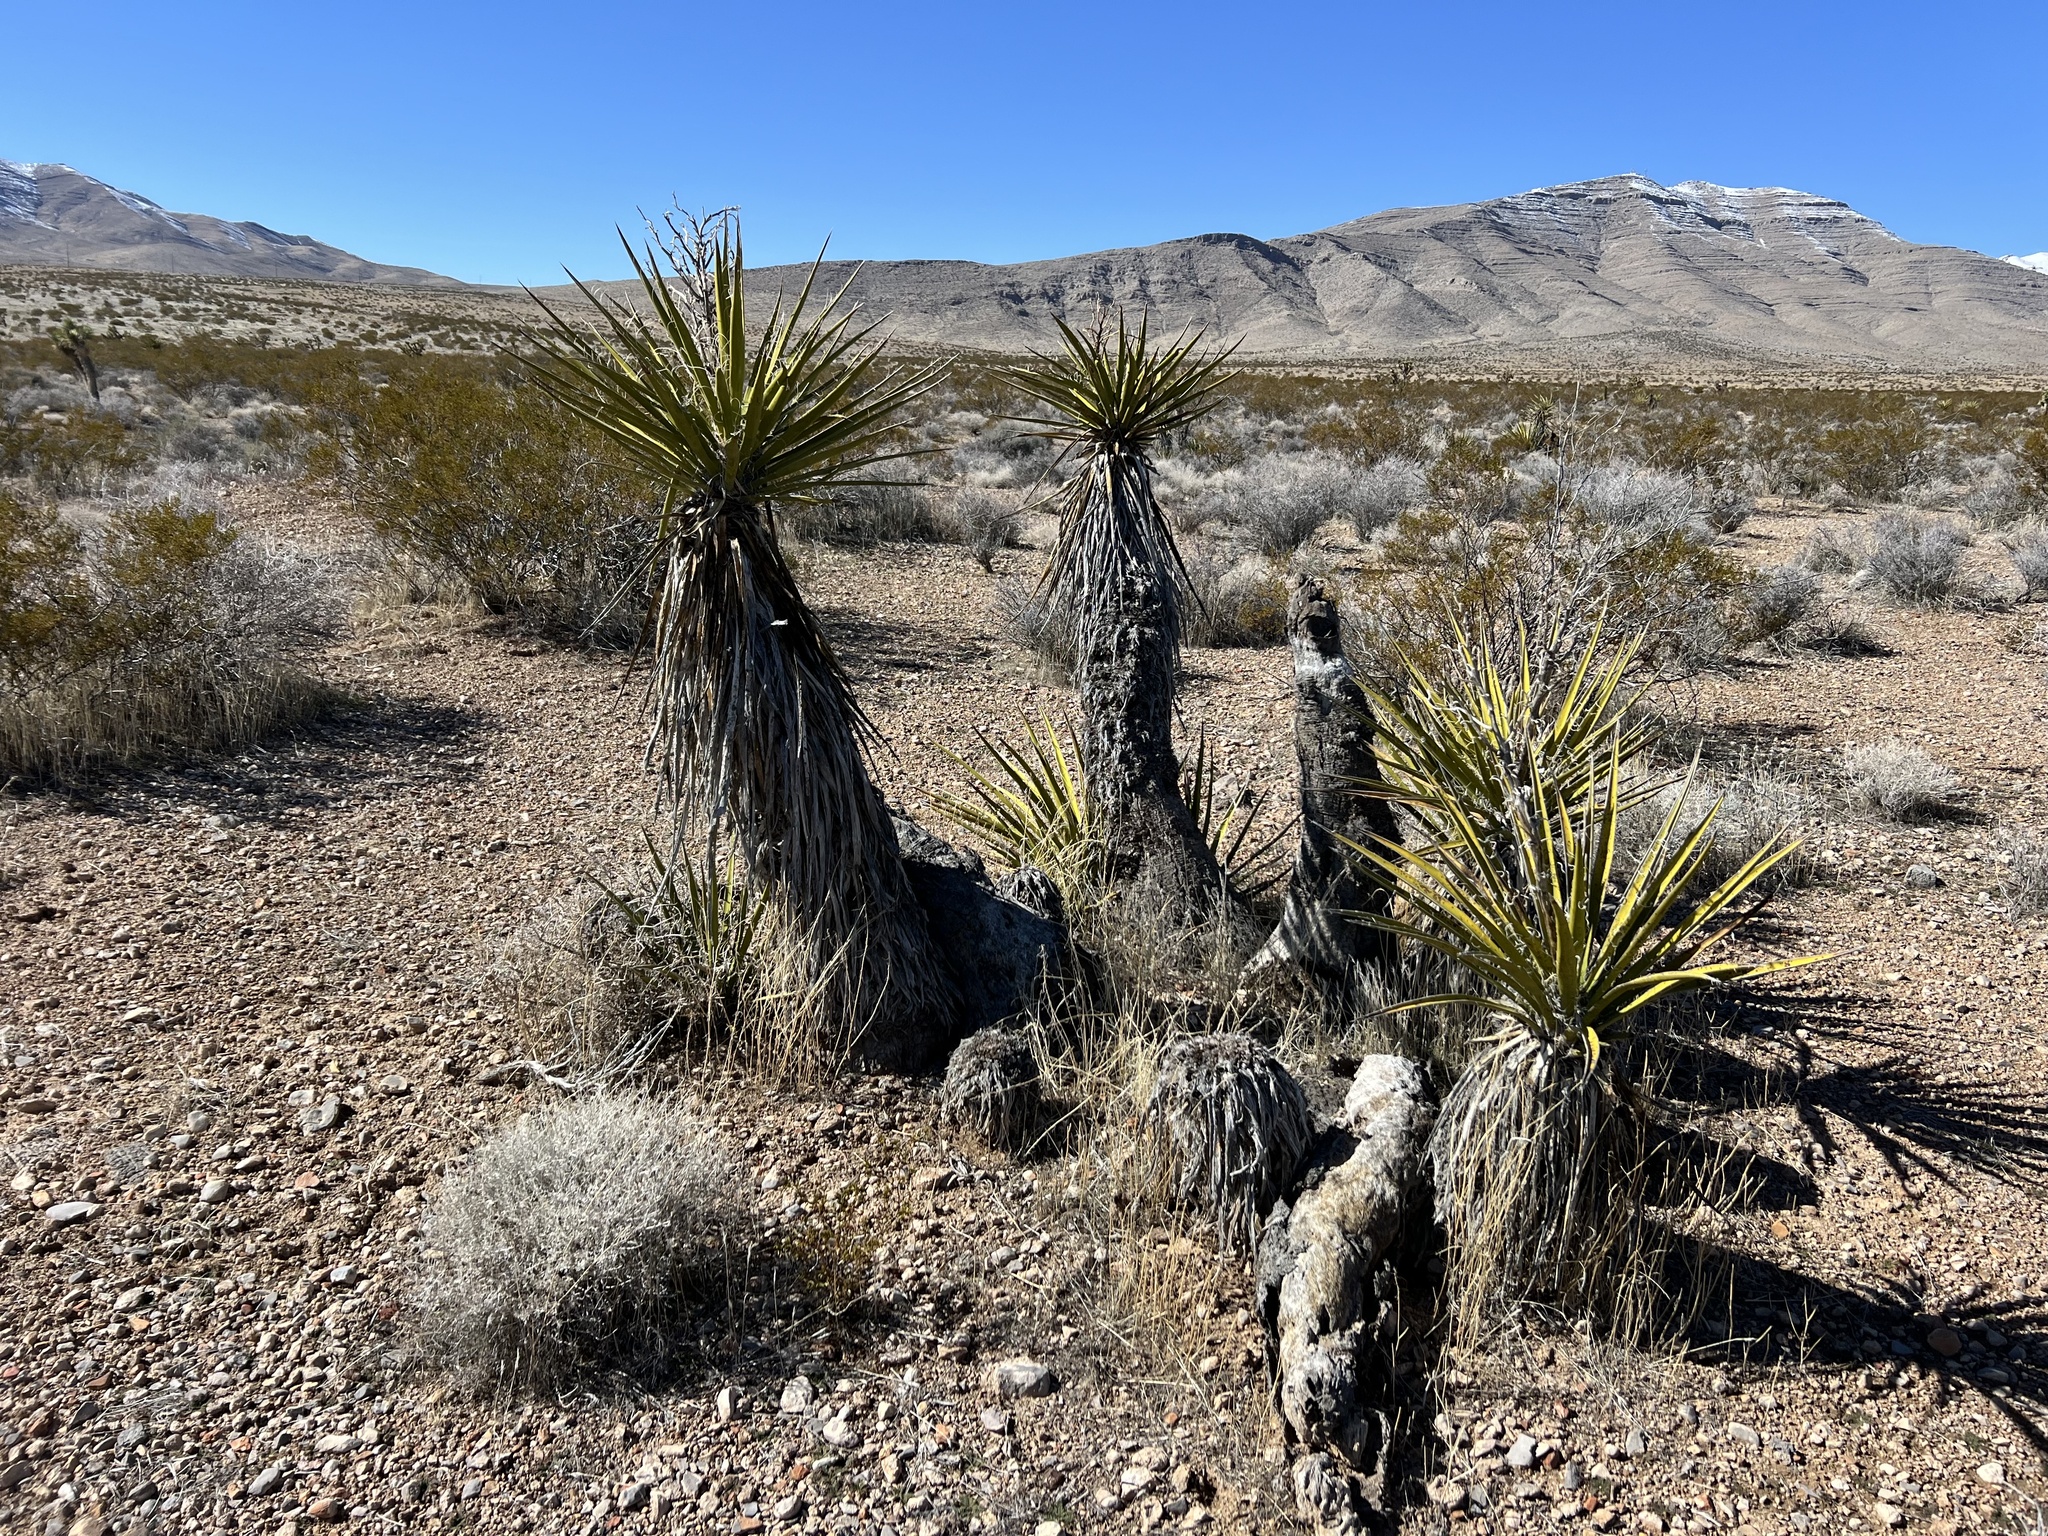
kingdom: Plantae
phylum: Tracheophyta
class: Liliopsida
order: Asparagales
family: Asparagaceae
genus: Yucca
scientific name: Yucca schidigera
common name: Mojave yucca
